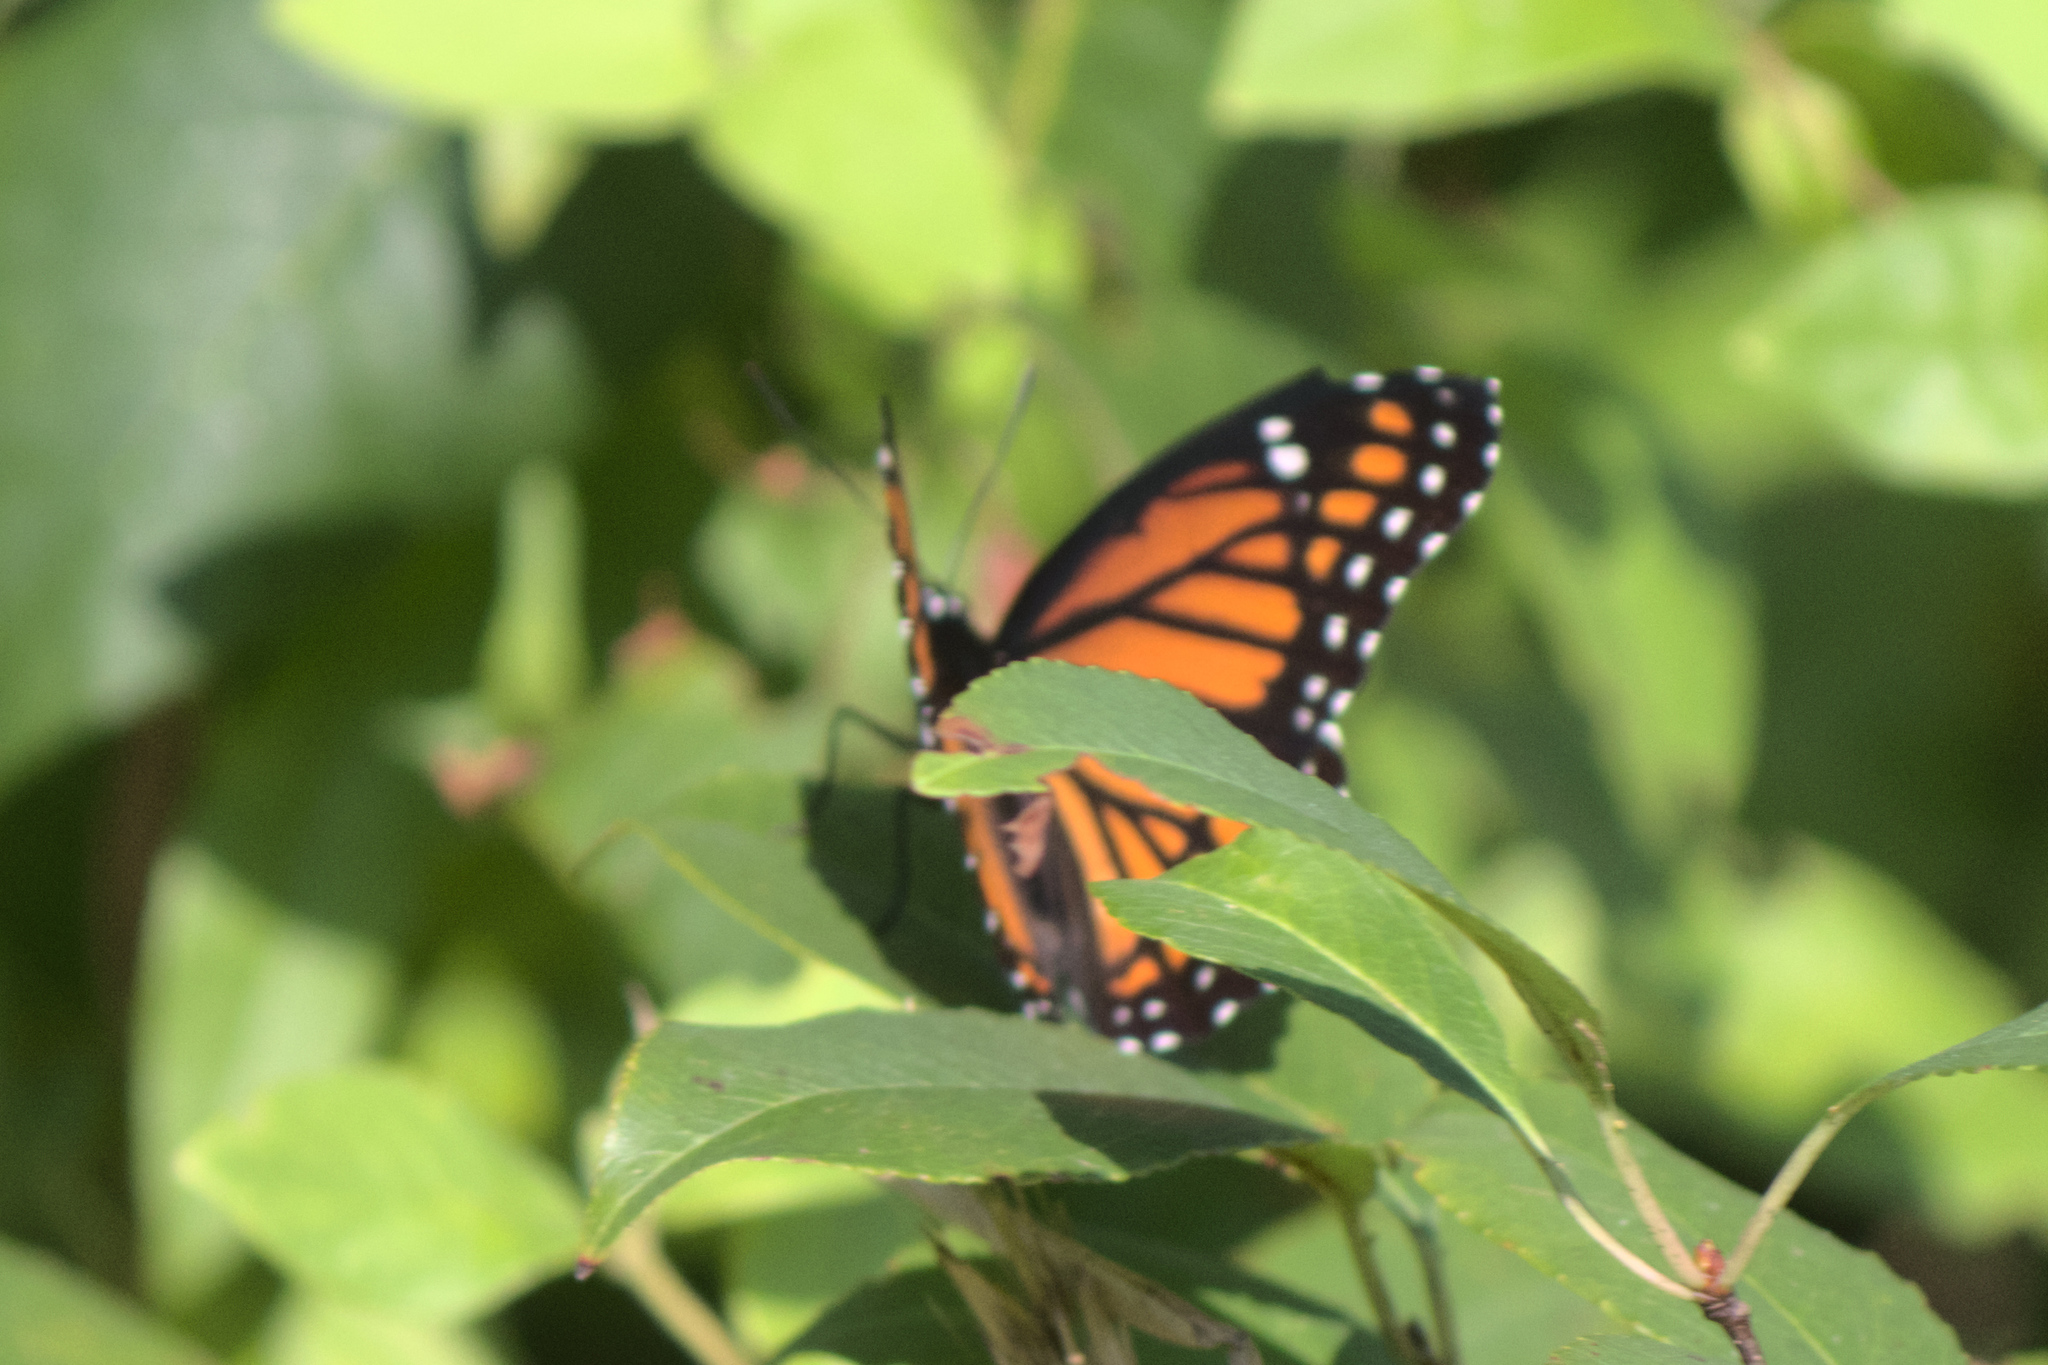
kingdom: Animalia
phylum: Arthropoda
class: Insecta
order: Lepidoptera
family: Nymphalidae
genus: Limenitis
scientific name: Limenitis archippus
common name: Viceroy
